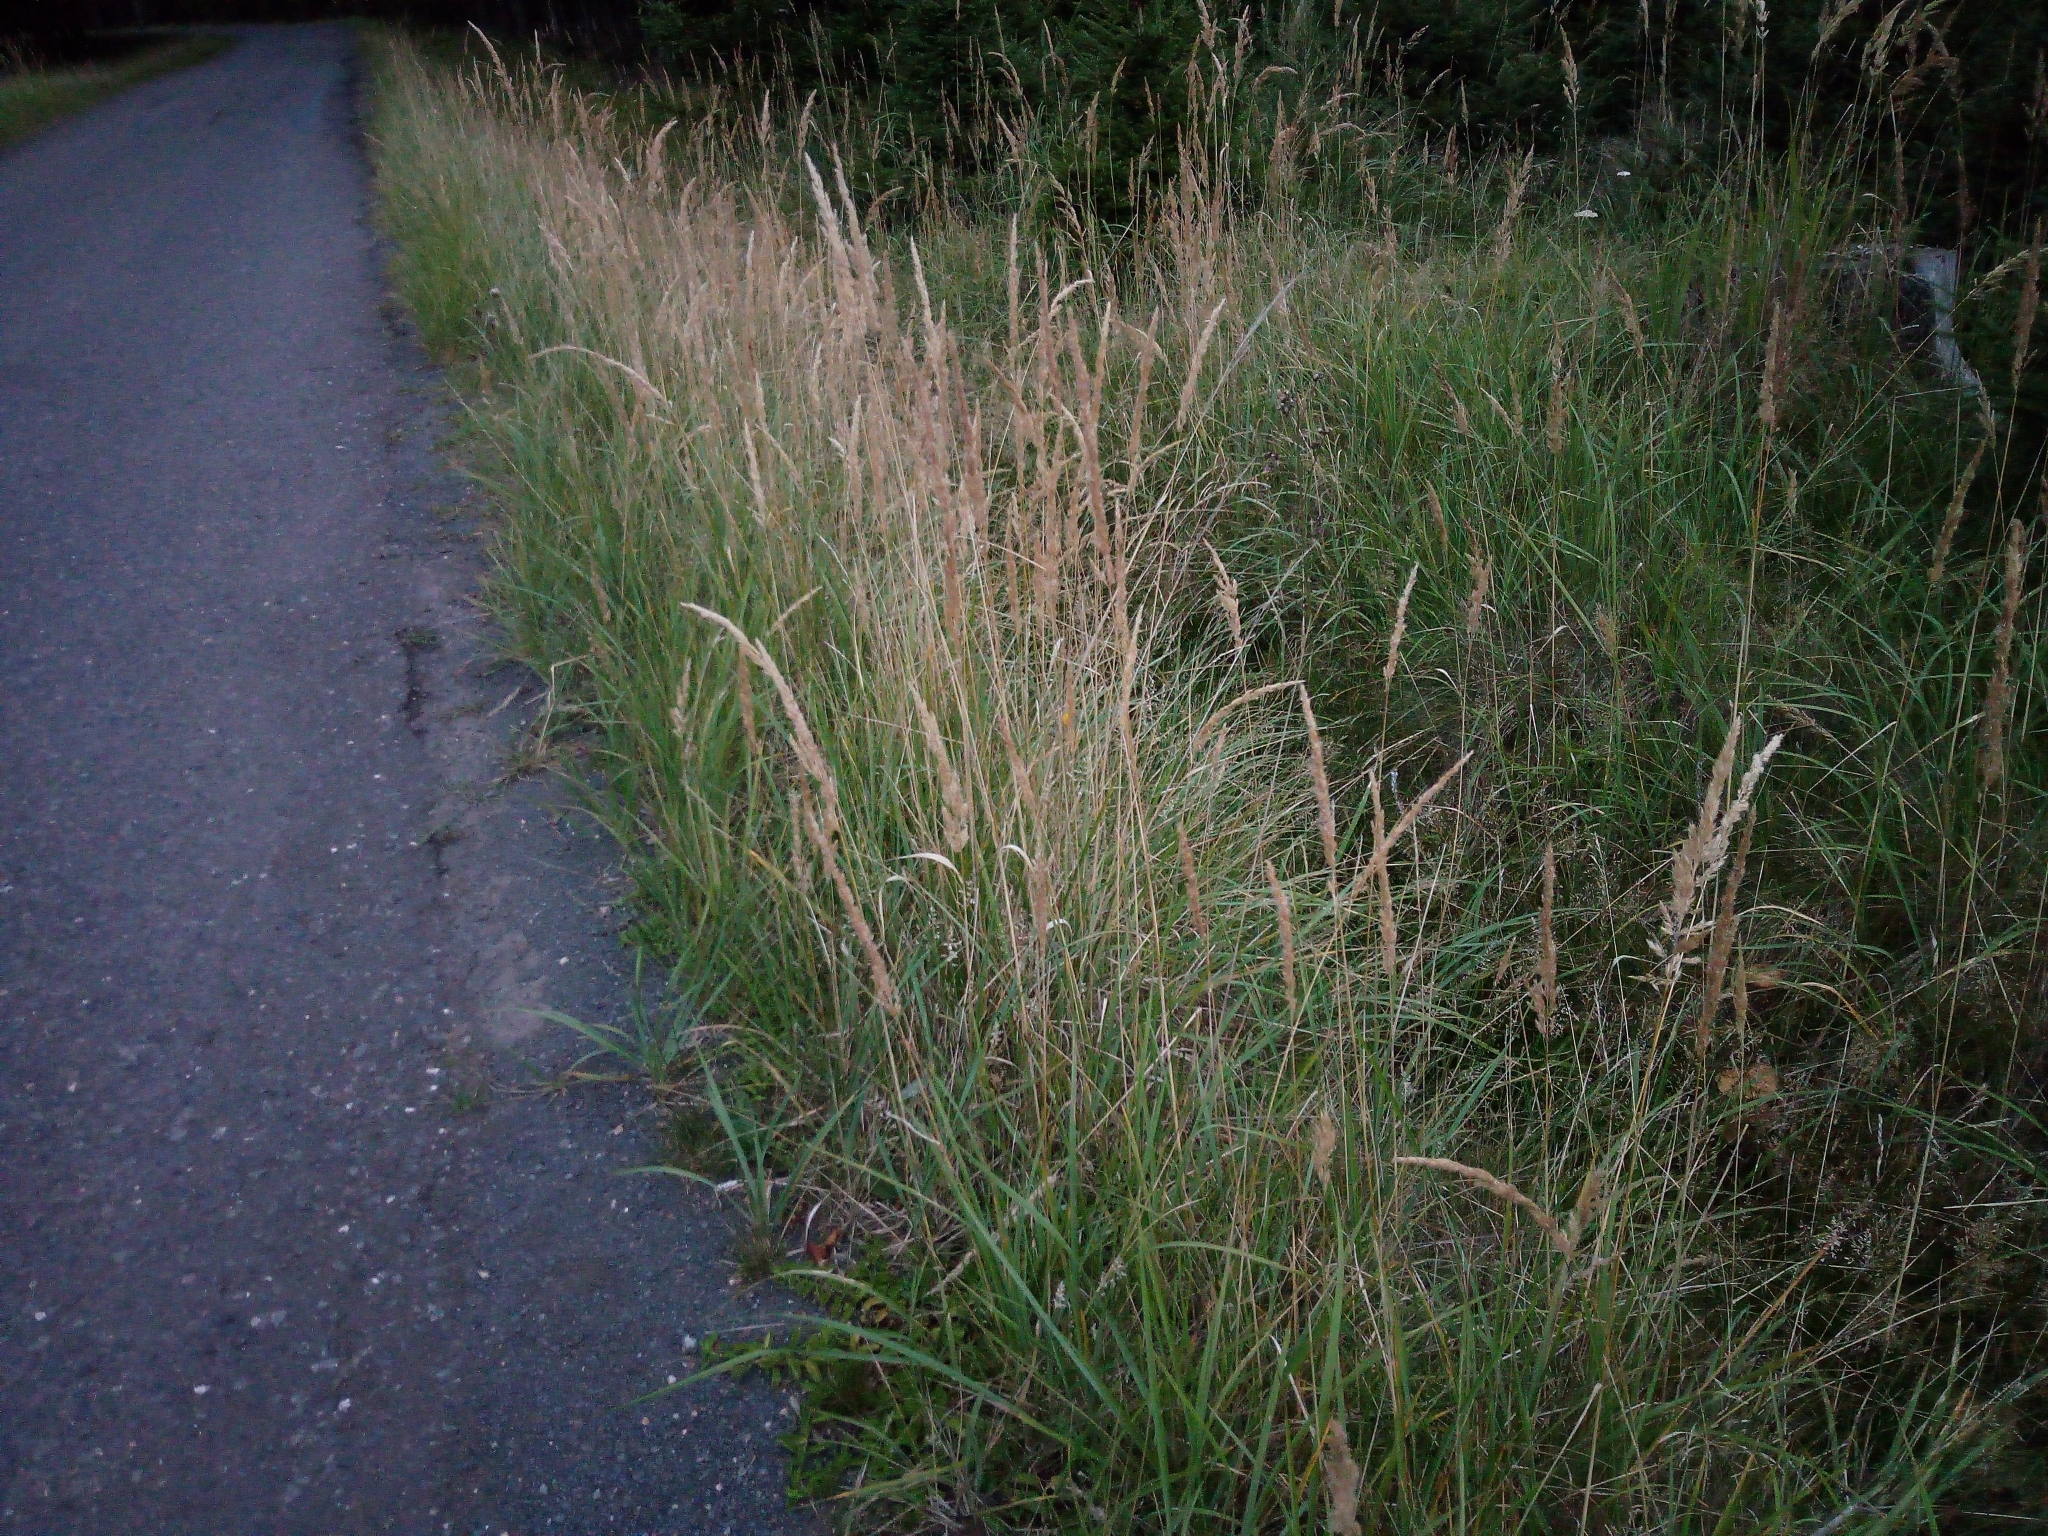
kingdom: Plantae
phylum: Tracheophyta
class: Liliopsida
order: Poales
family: Poaceae
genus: Calamagrostis
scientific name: Calamagrostis epigejos
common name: Wood small-reed
